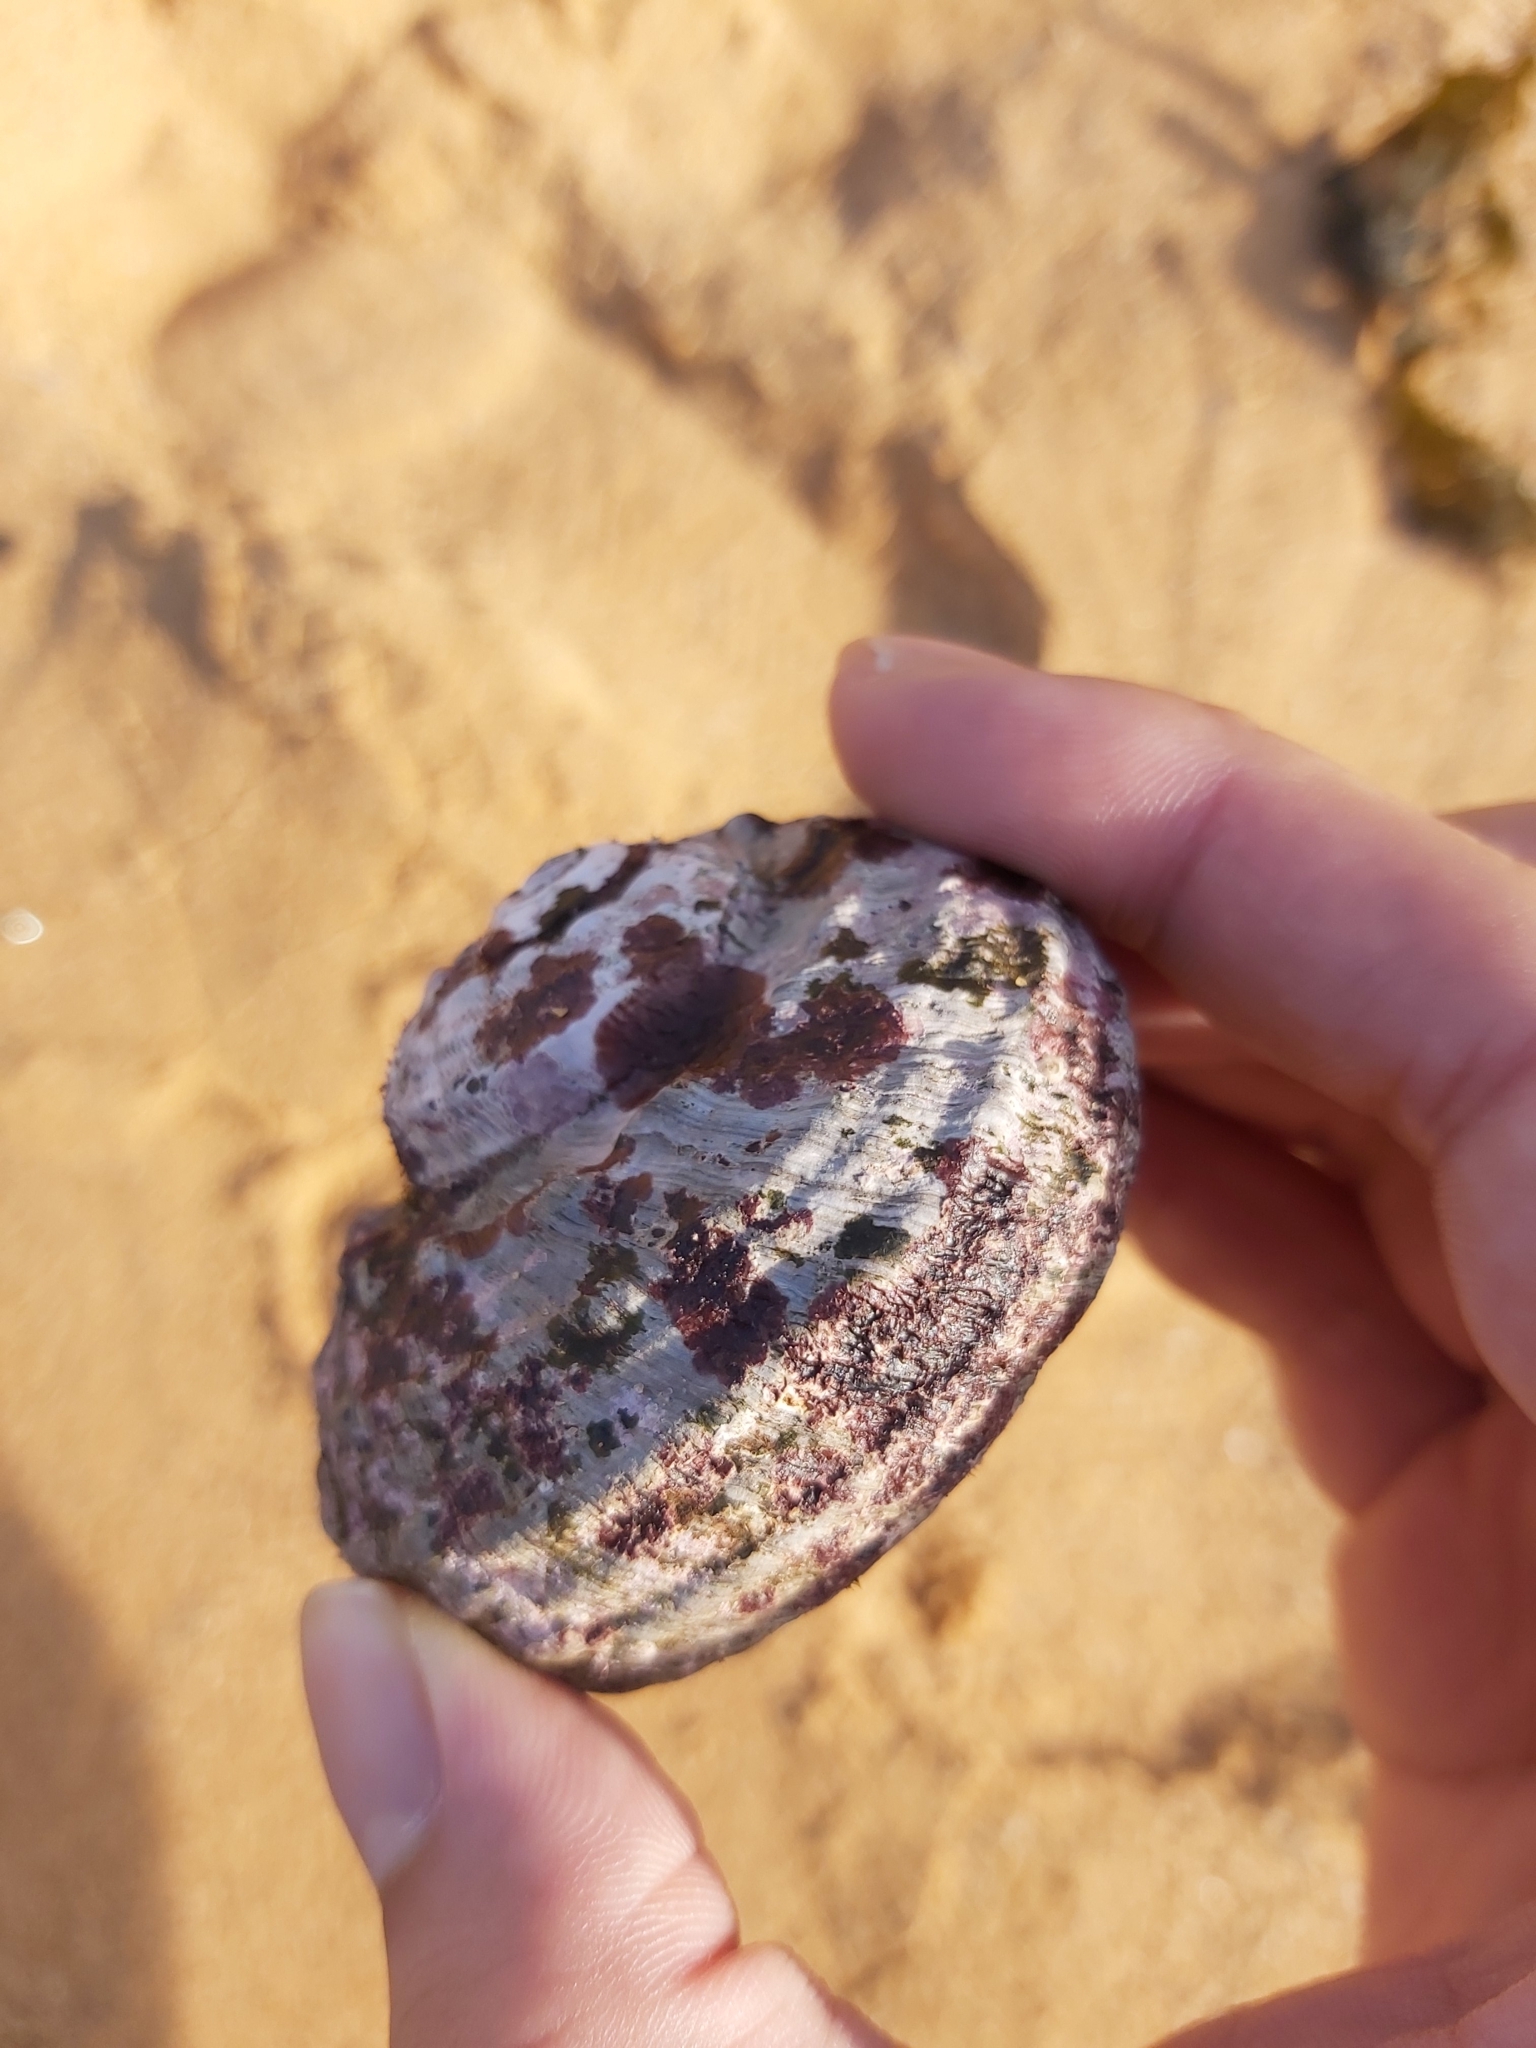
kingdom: Animalia
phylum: Mollusca
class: Gastropoda
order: Trochida
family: Turbinidae
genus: Lunella
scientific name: Lunella torquata
